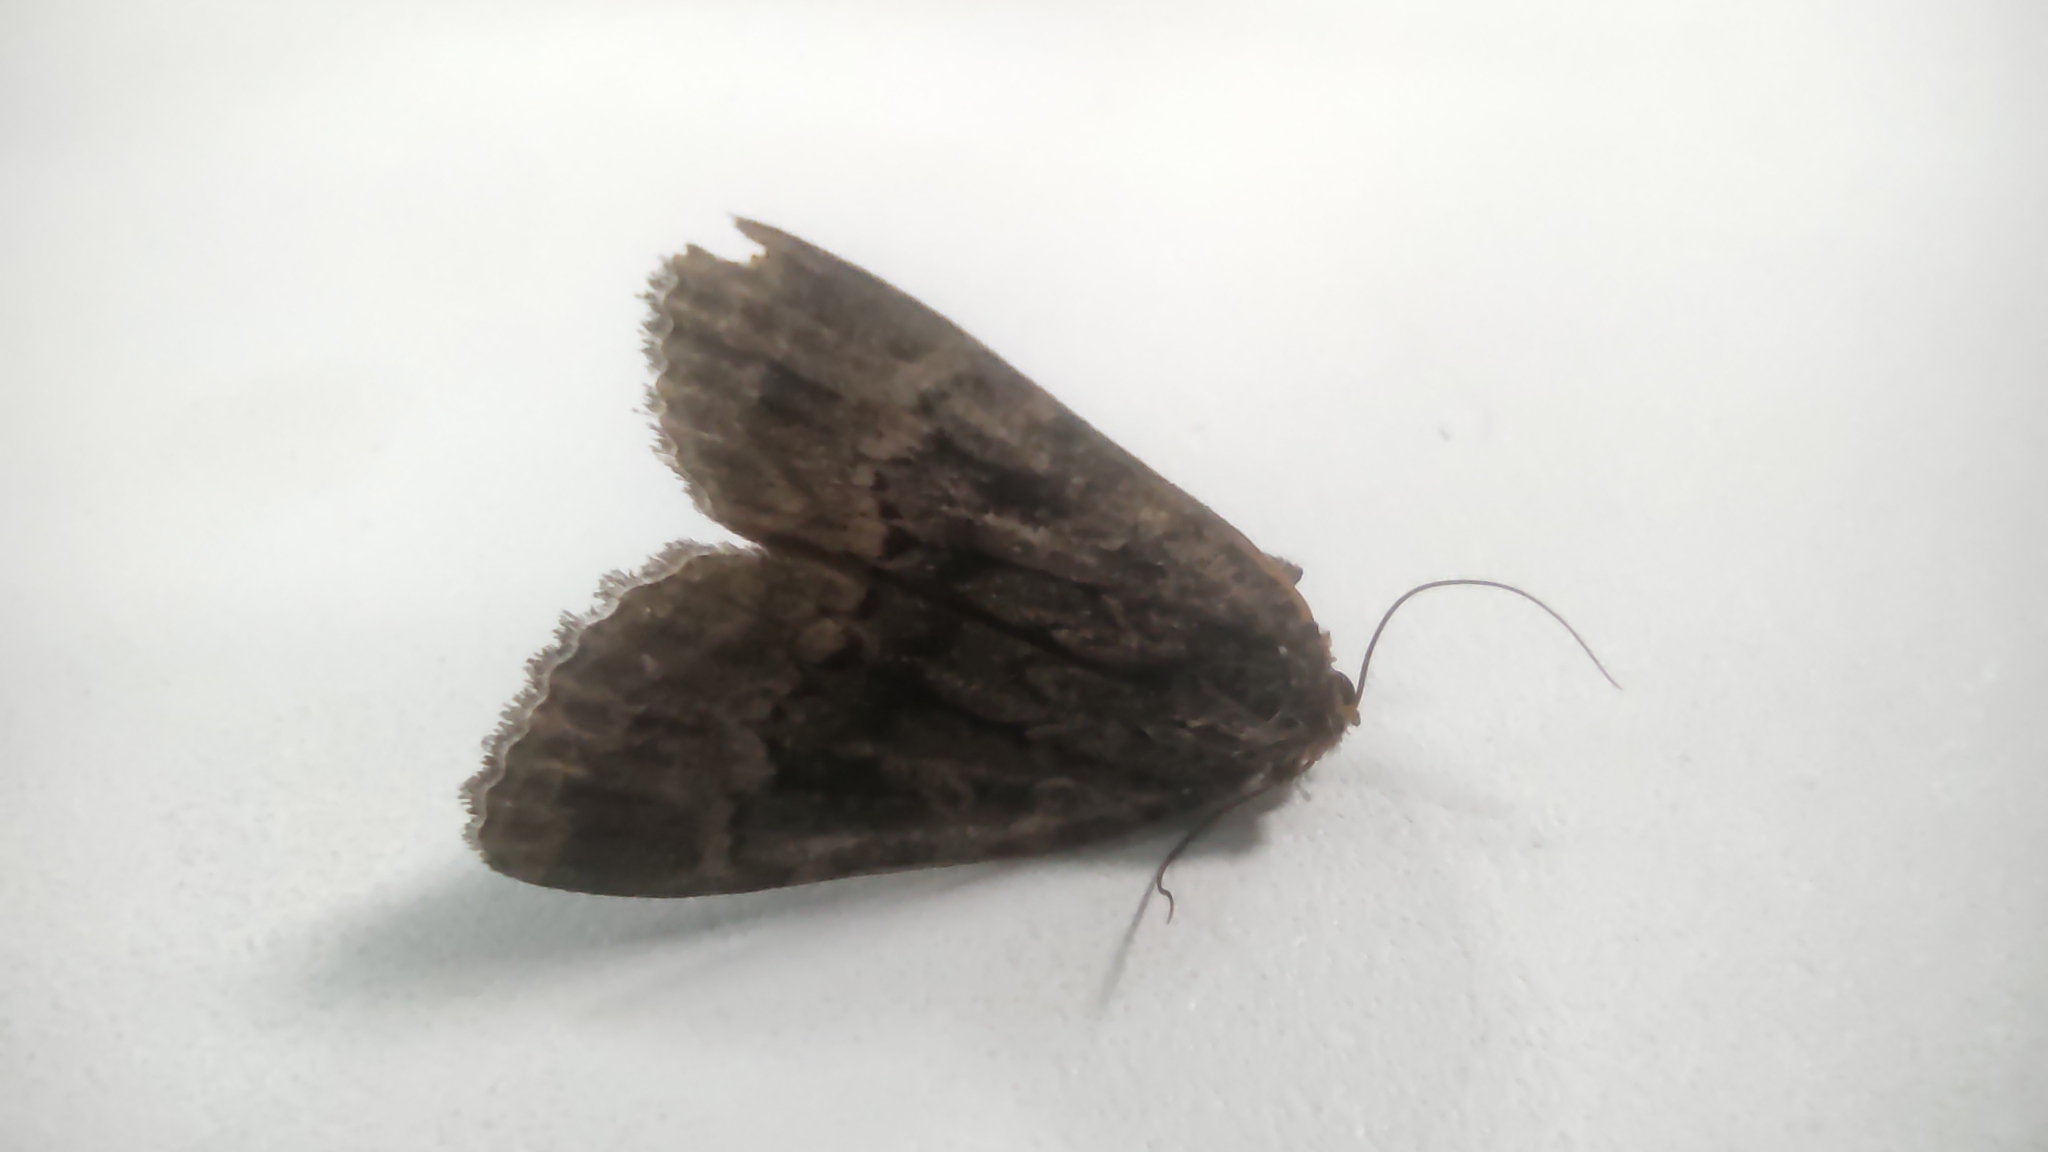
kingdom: Animalia
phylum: Arthropoda
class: Insecta
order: Lepidoptera
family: Noctuidae
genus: Amphipyra
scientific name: Amphipyra berbera
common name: Svensson's copper underwing
